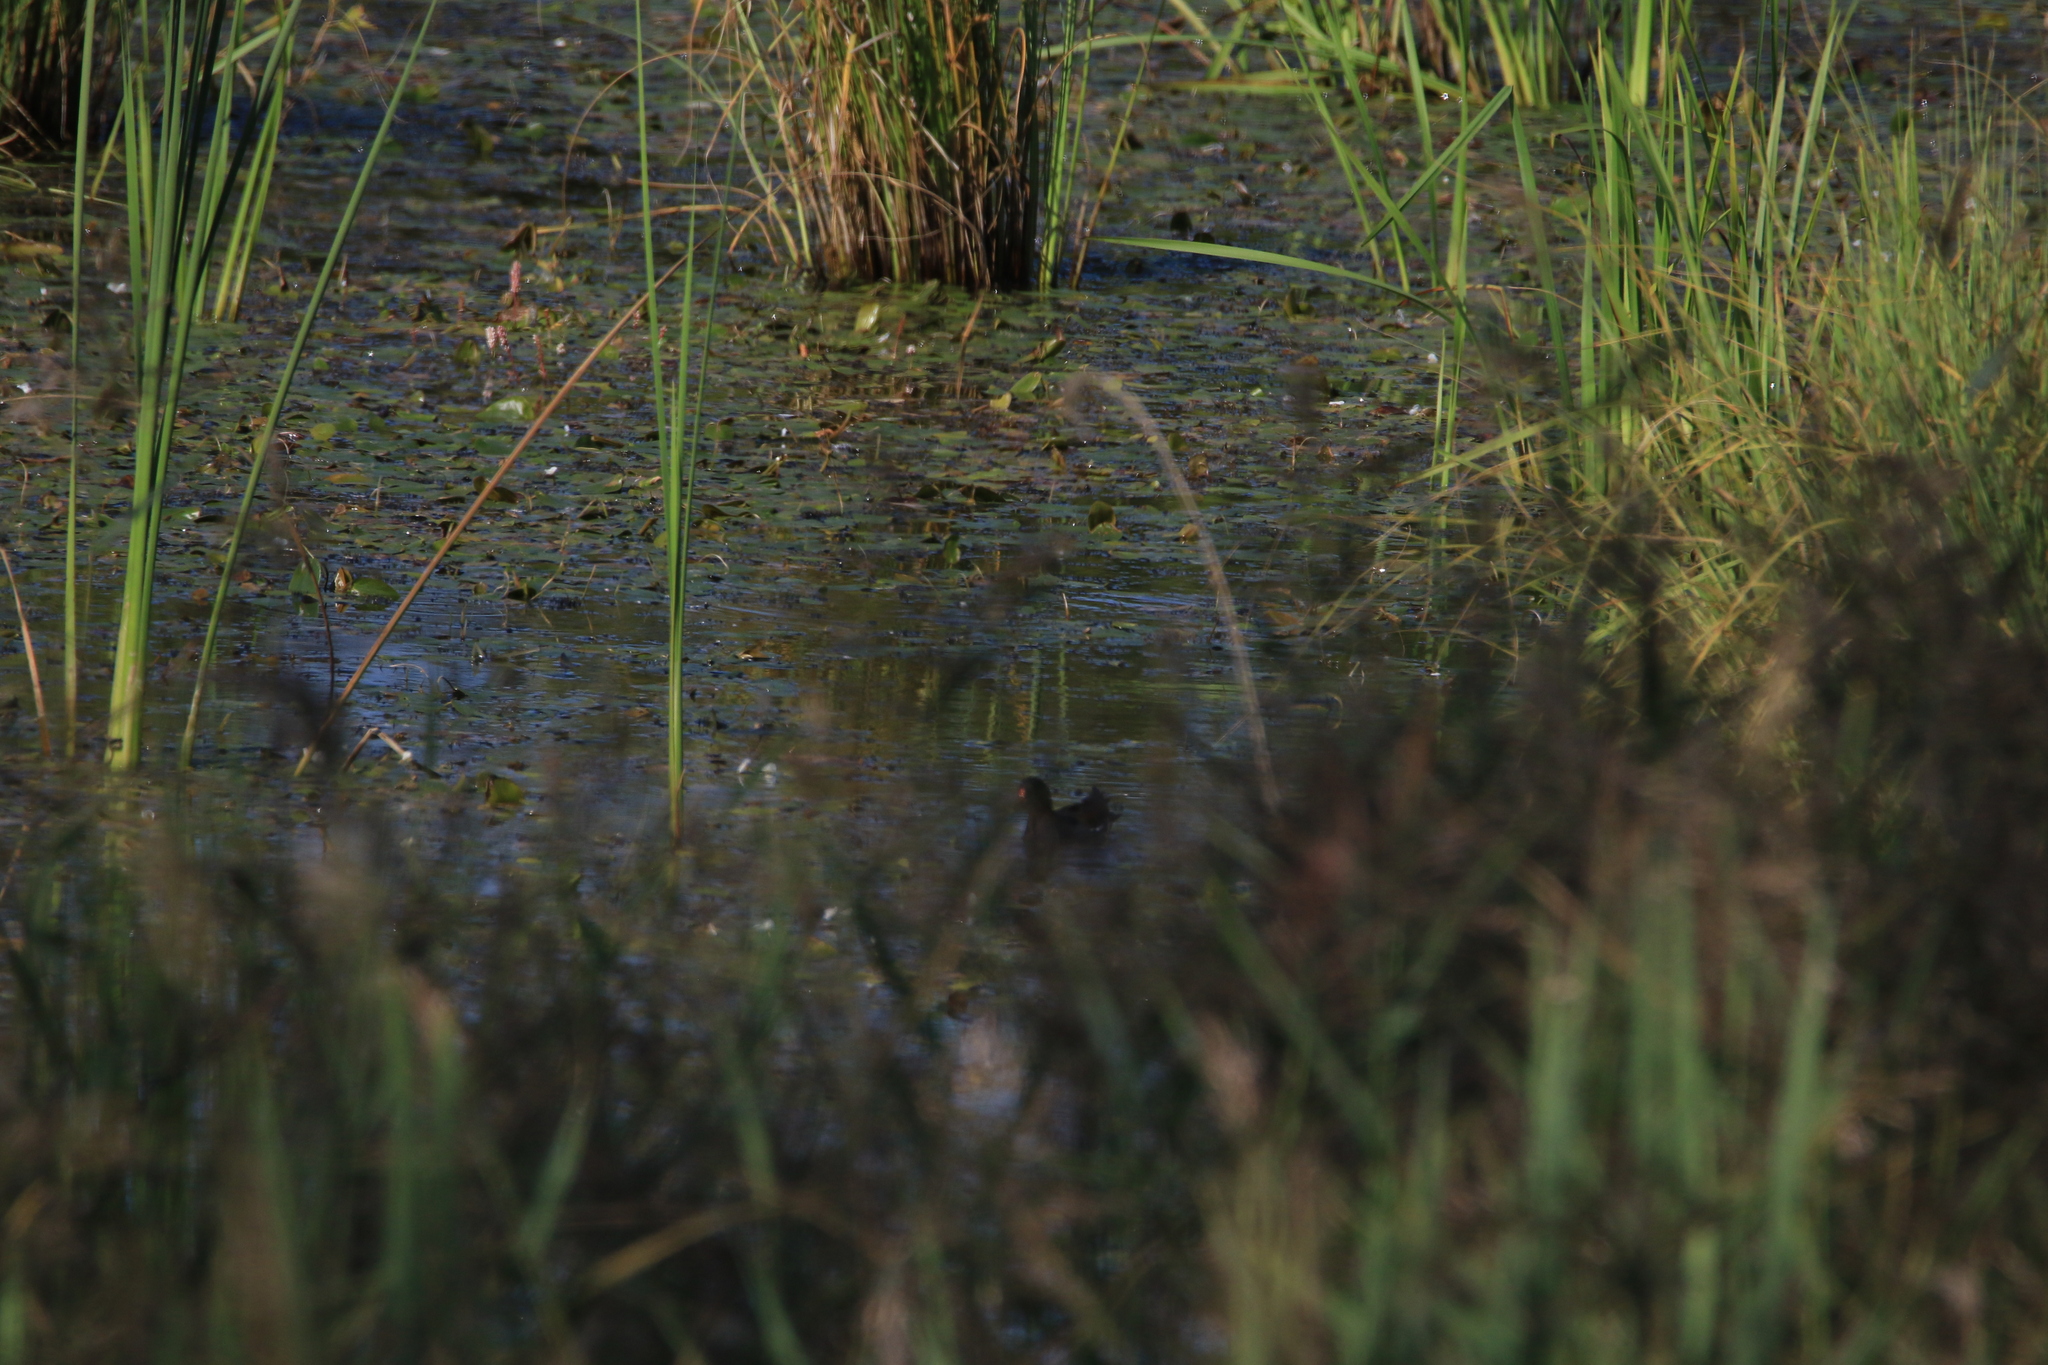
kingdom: Animalia
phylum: Chordata
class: Aves
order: Gruiformes
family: Rallidae
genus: Gallinula
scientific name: Gallinula chloropus
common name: Common moorhen
